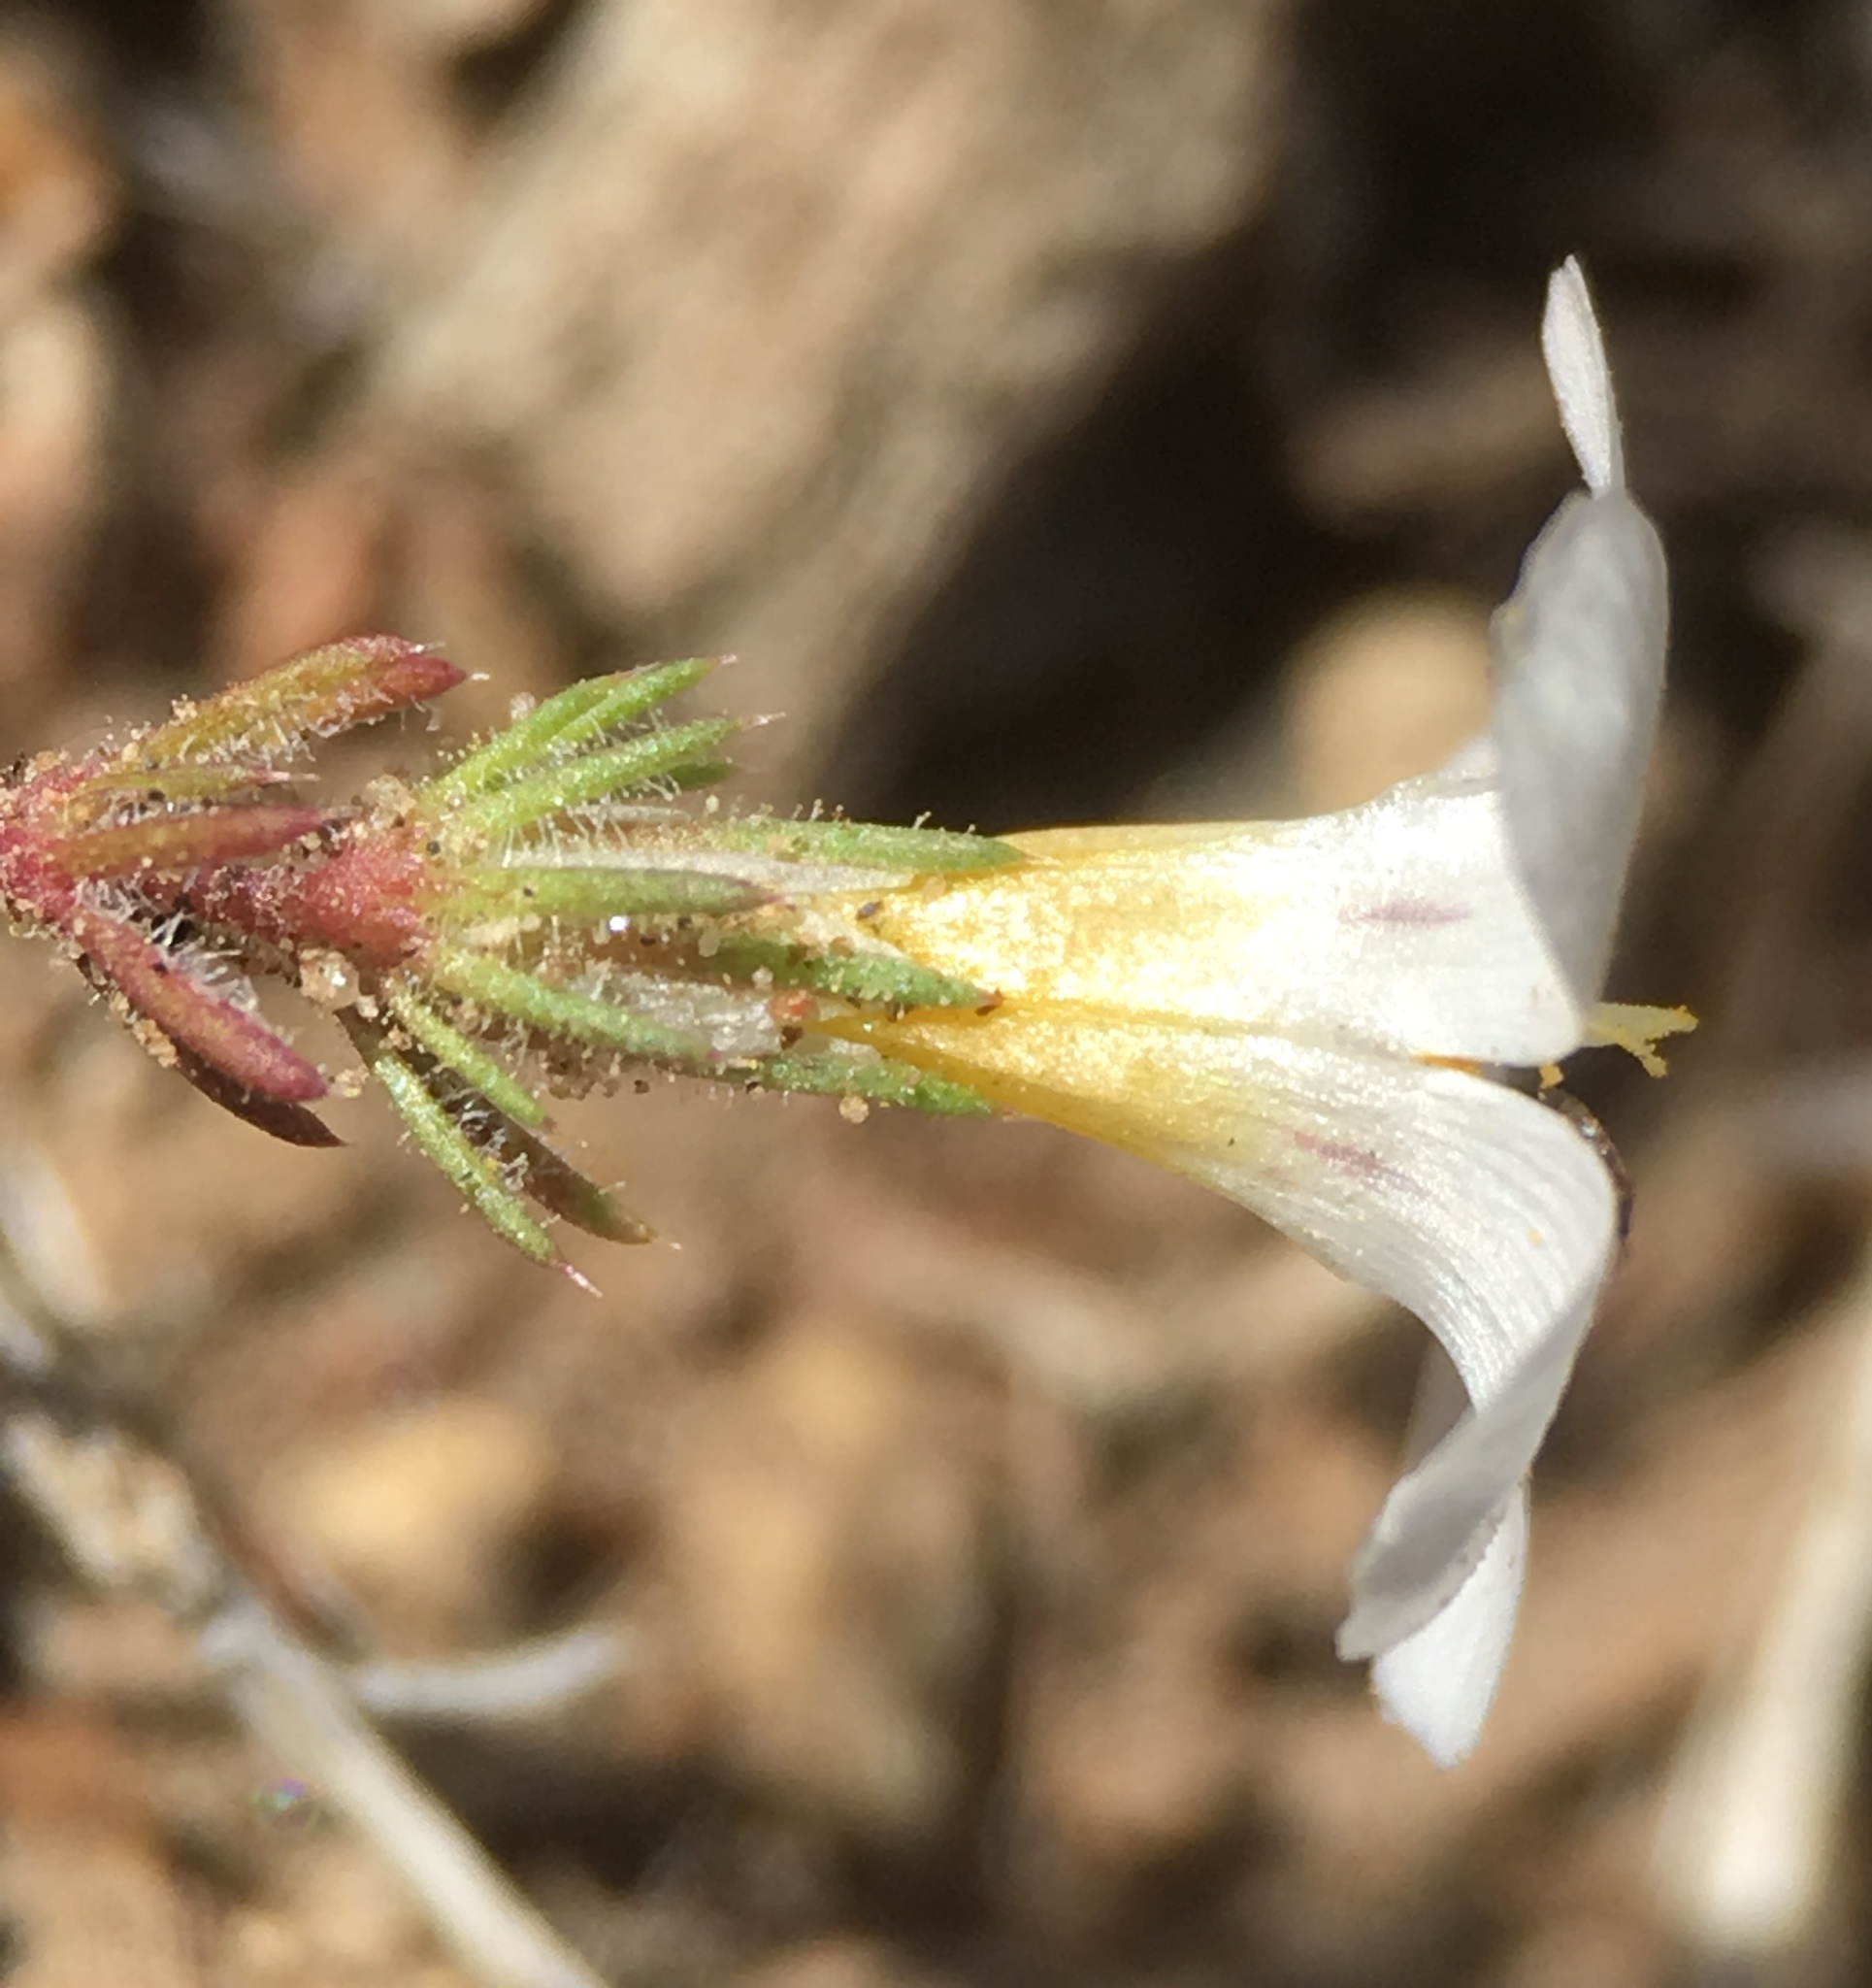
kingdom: Plantae
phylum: Tracheophyta
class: Magnoliopsida
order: Ericales
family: Polemoniaceae
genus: Linanthus
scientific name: Linanthus killipii
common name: Baldwin lake linanthus
